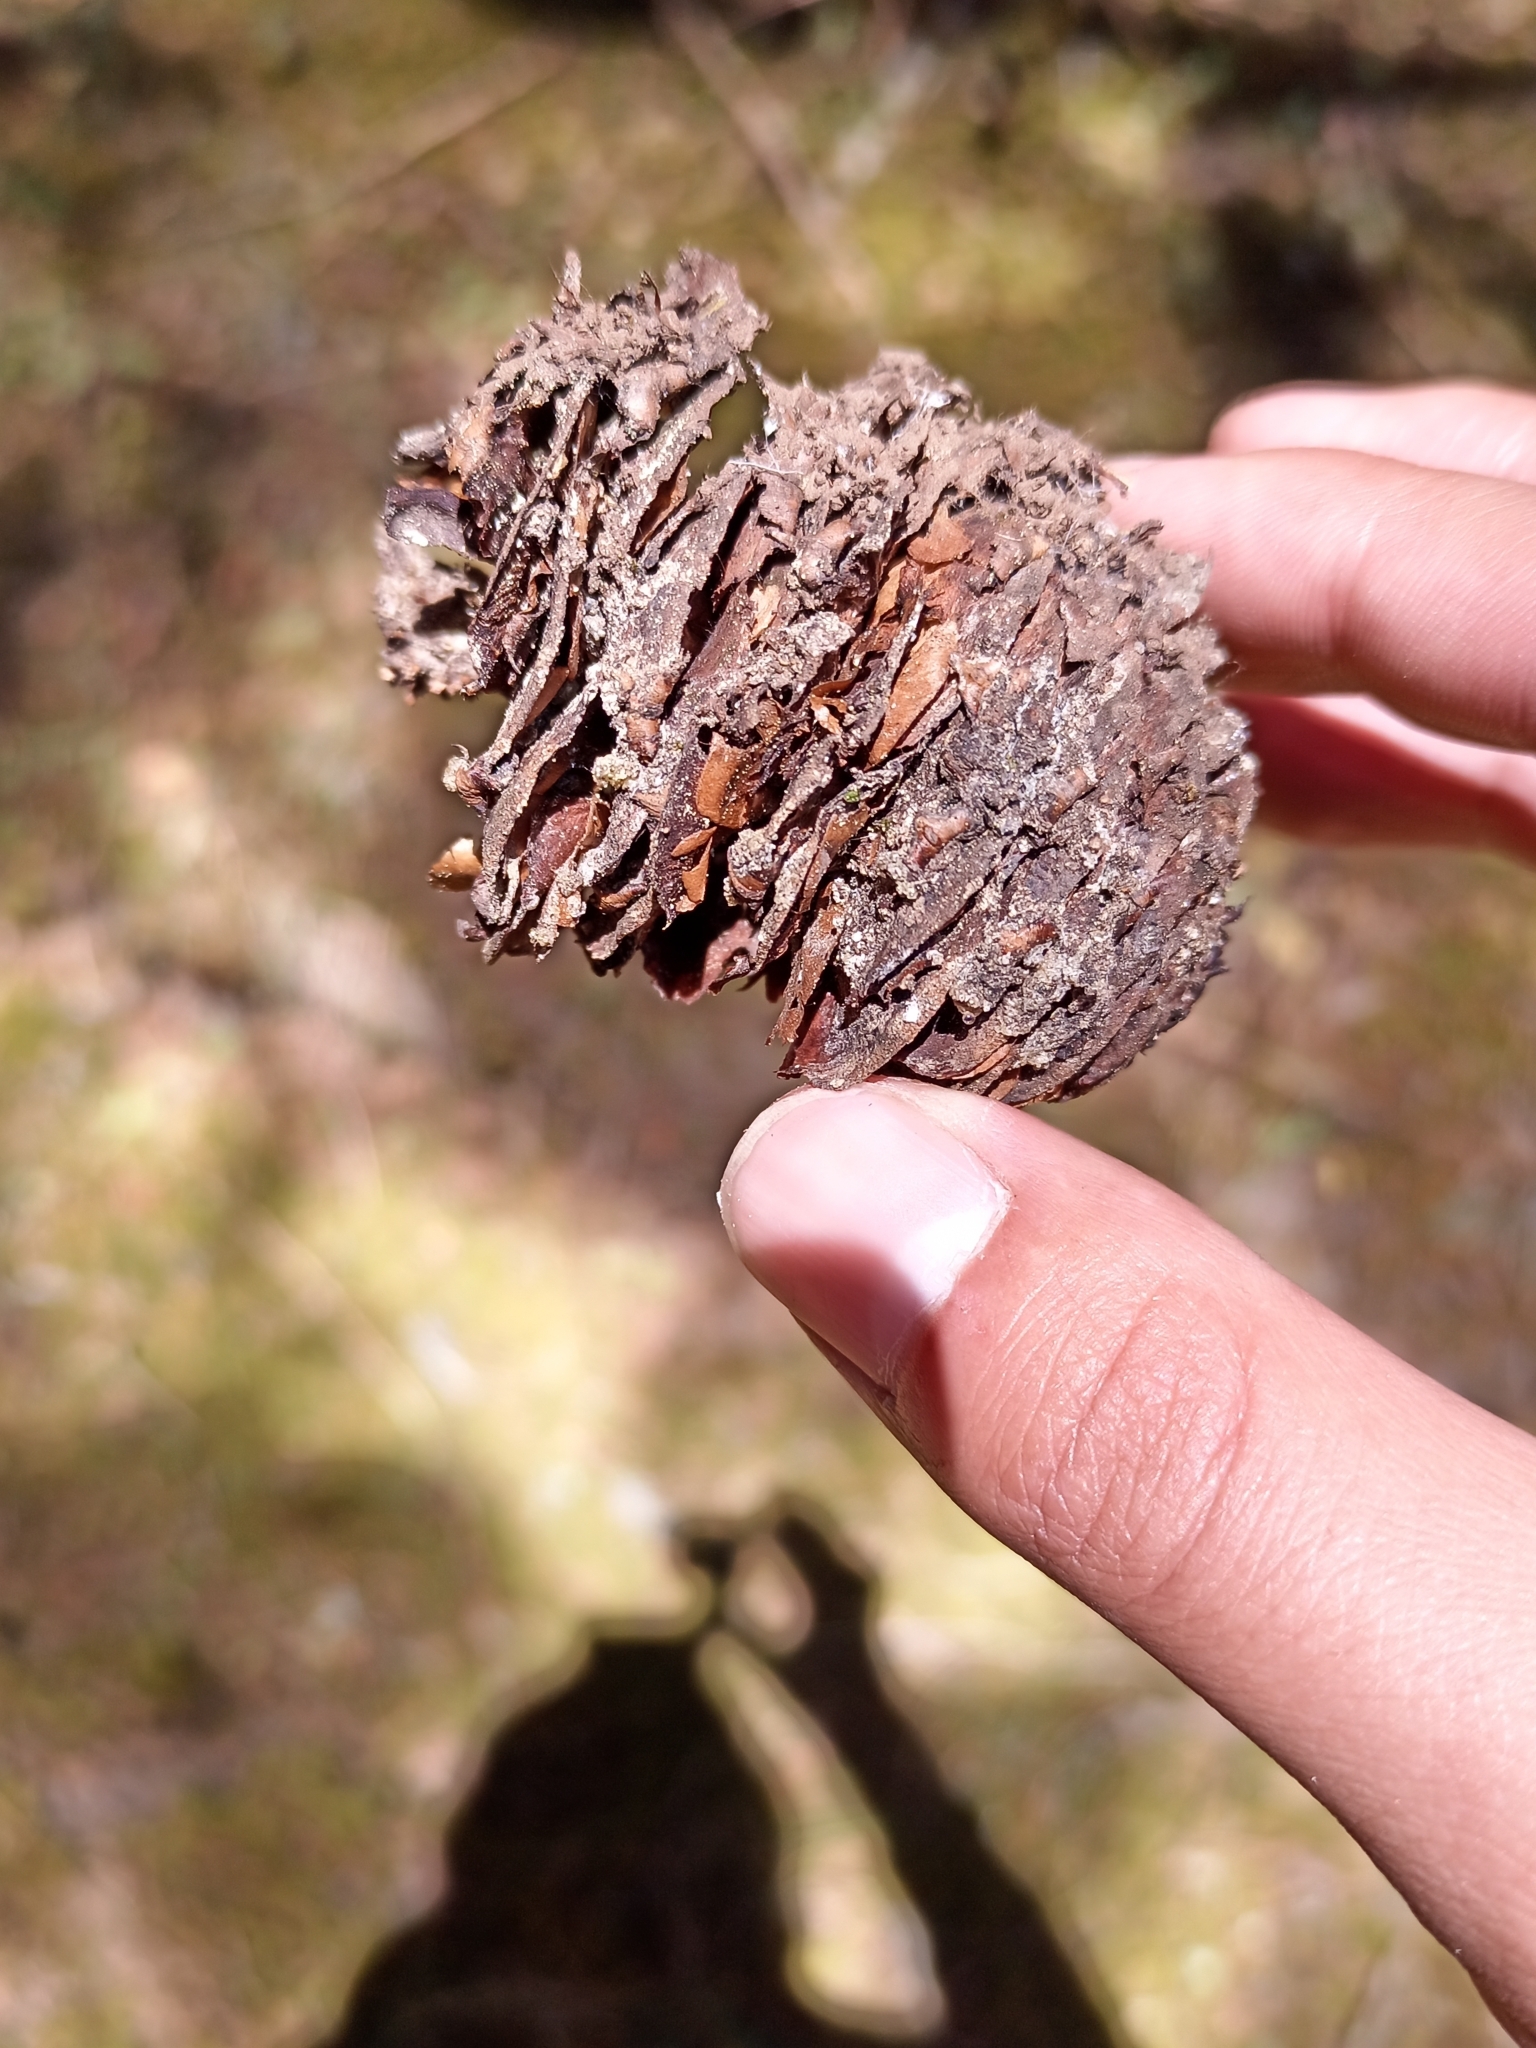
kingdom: Plantae
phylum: Tracheophyta
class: Pinopsida
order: Pinales
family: Pinaceae
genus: Abies
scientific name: Abies religiosa
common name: Sacred fir
